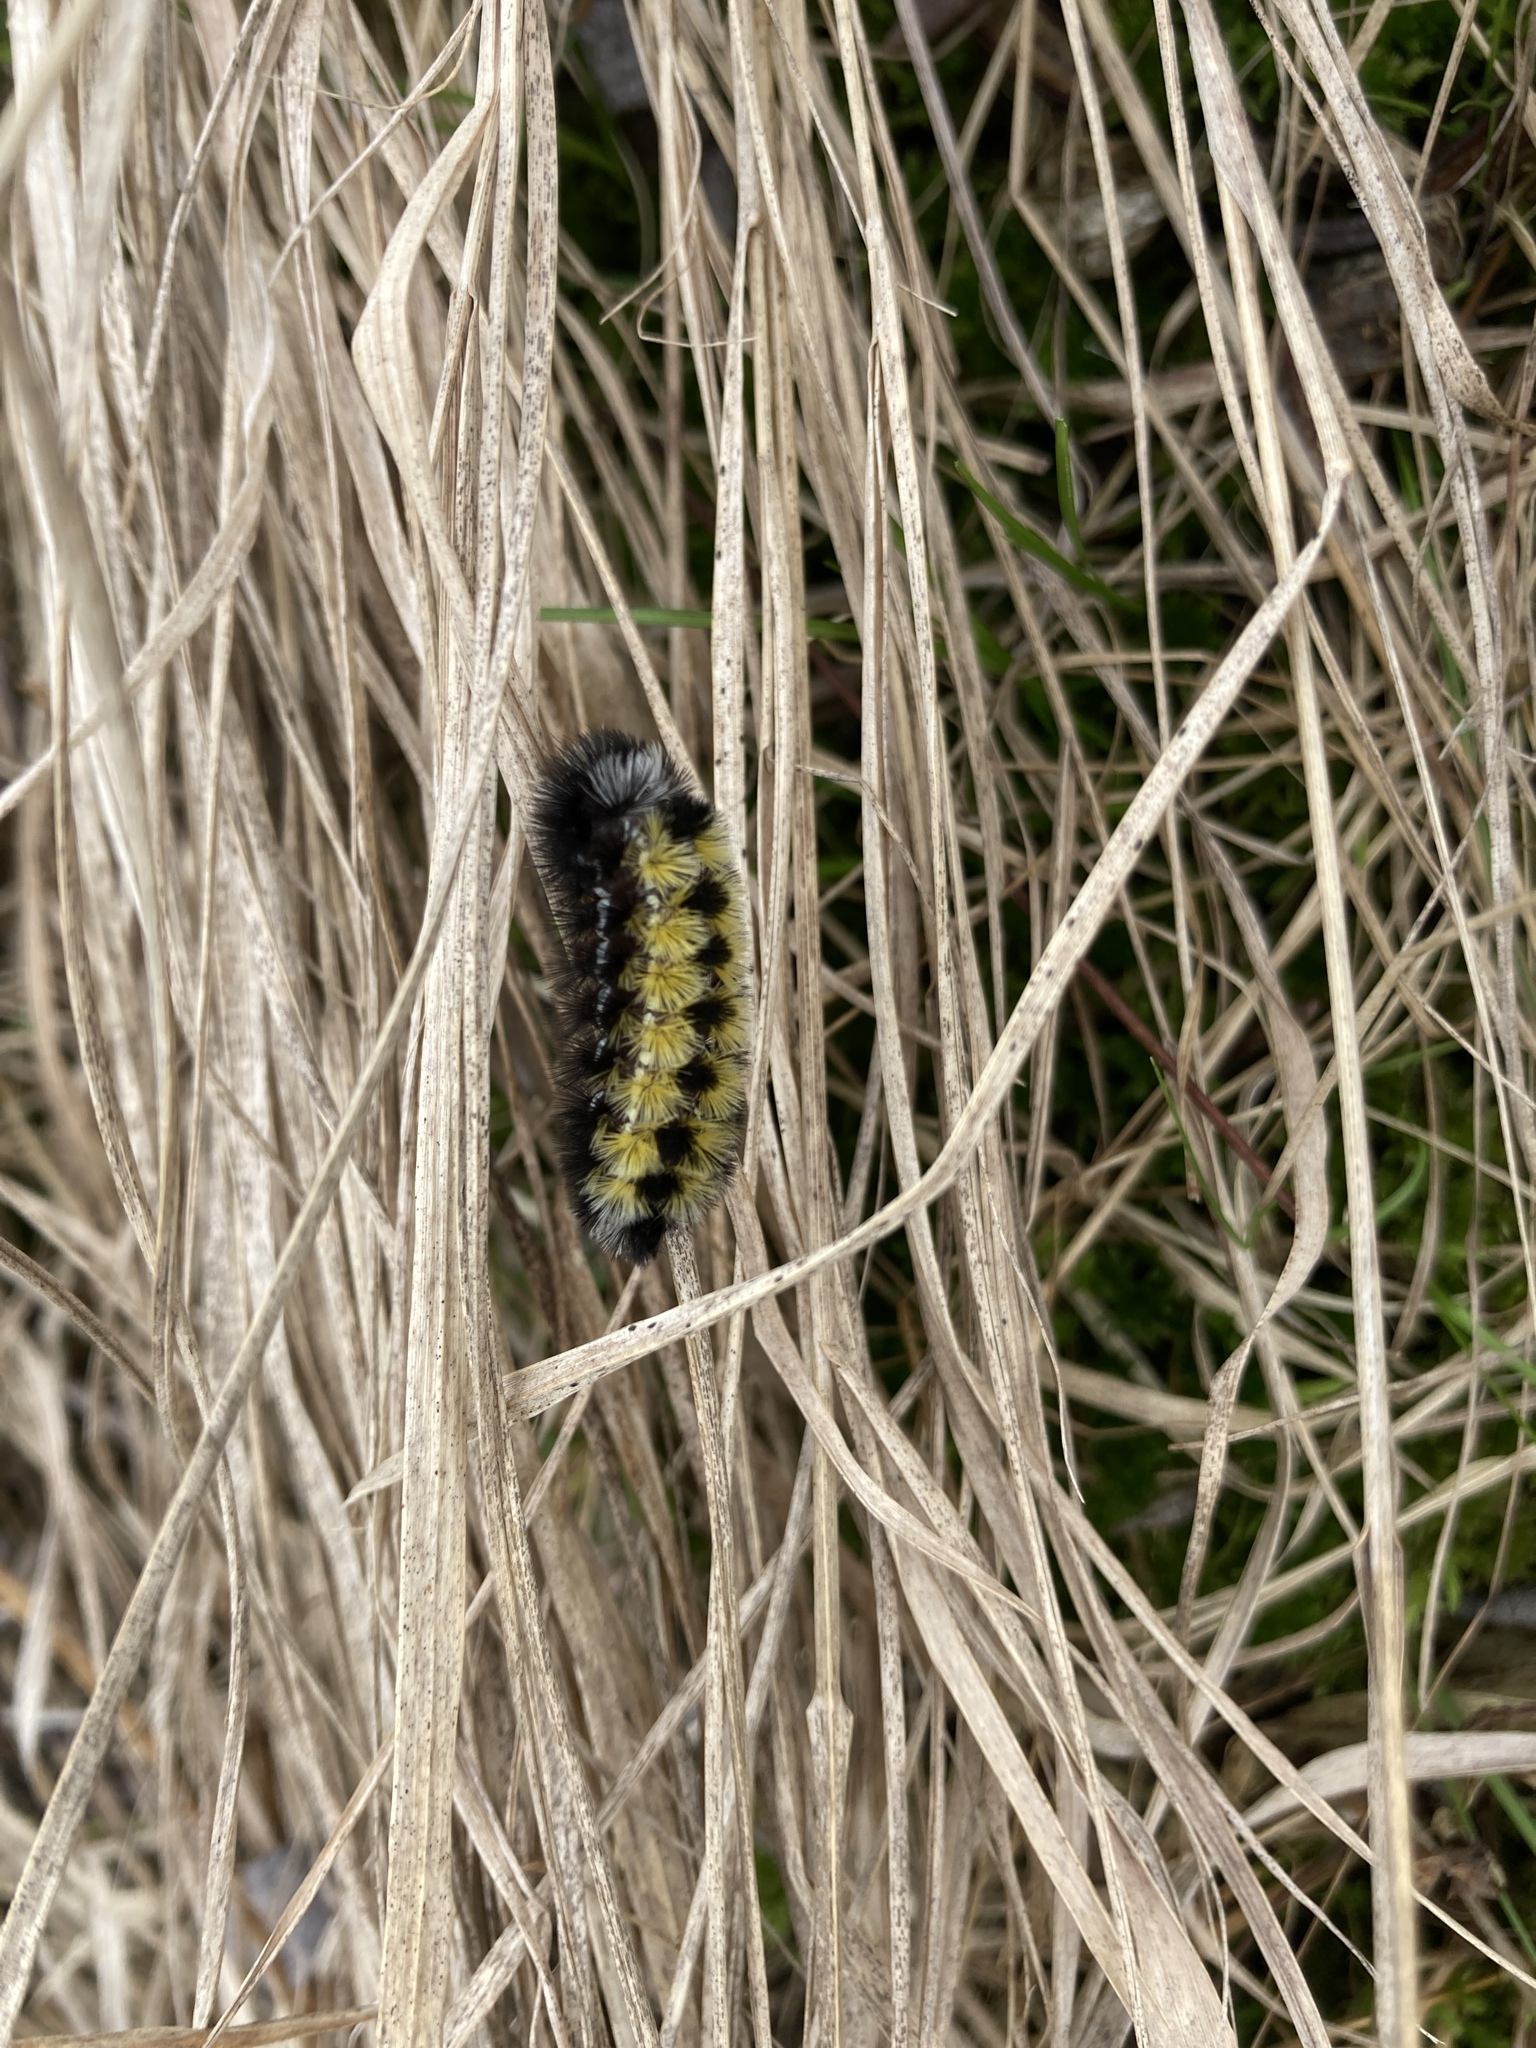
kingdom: Animalia
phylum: Arthropoda
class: Insecta
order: Lepidoptera
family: Erebidae
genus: Ctenucha
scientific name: Ctenucha virginica
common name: Virginia ctenucha moth
